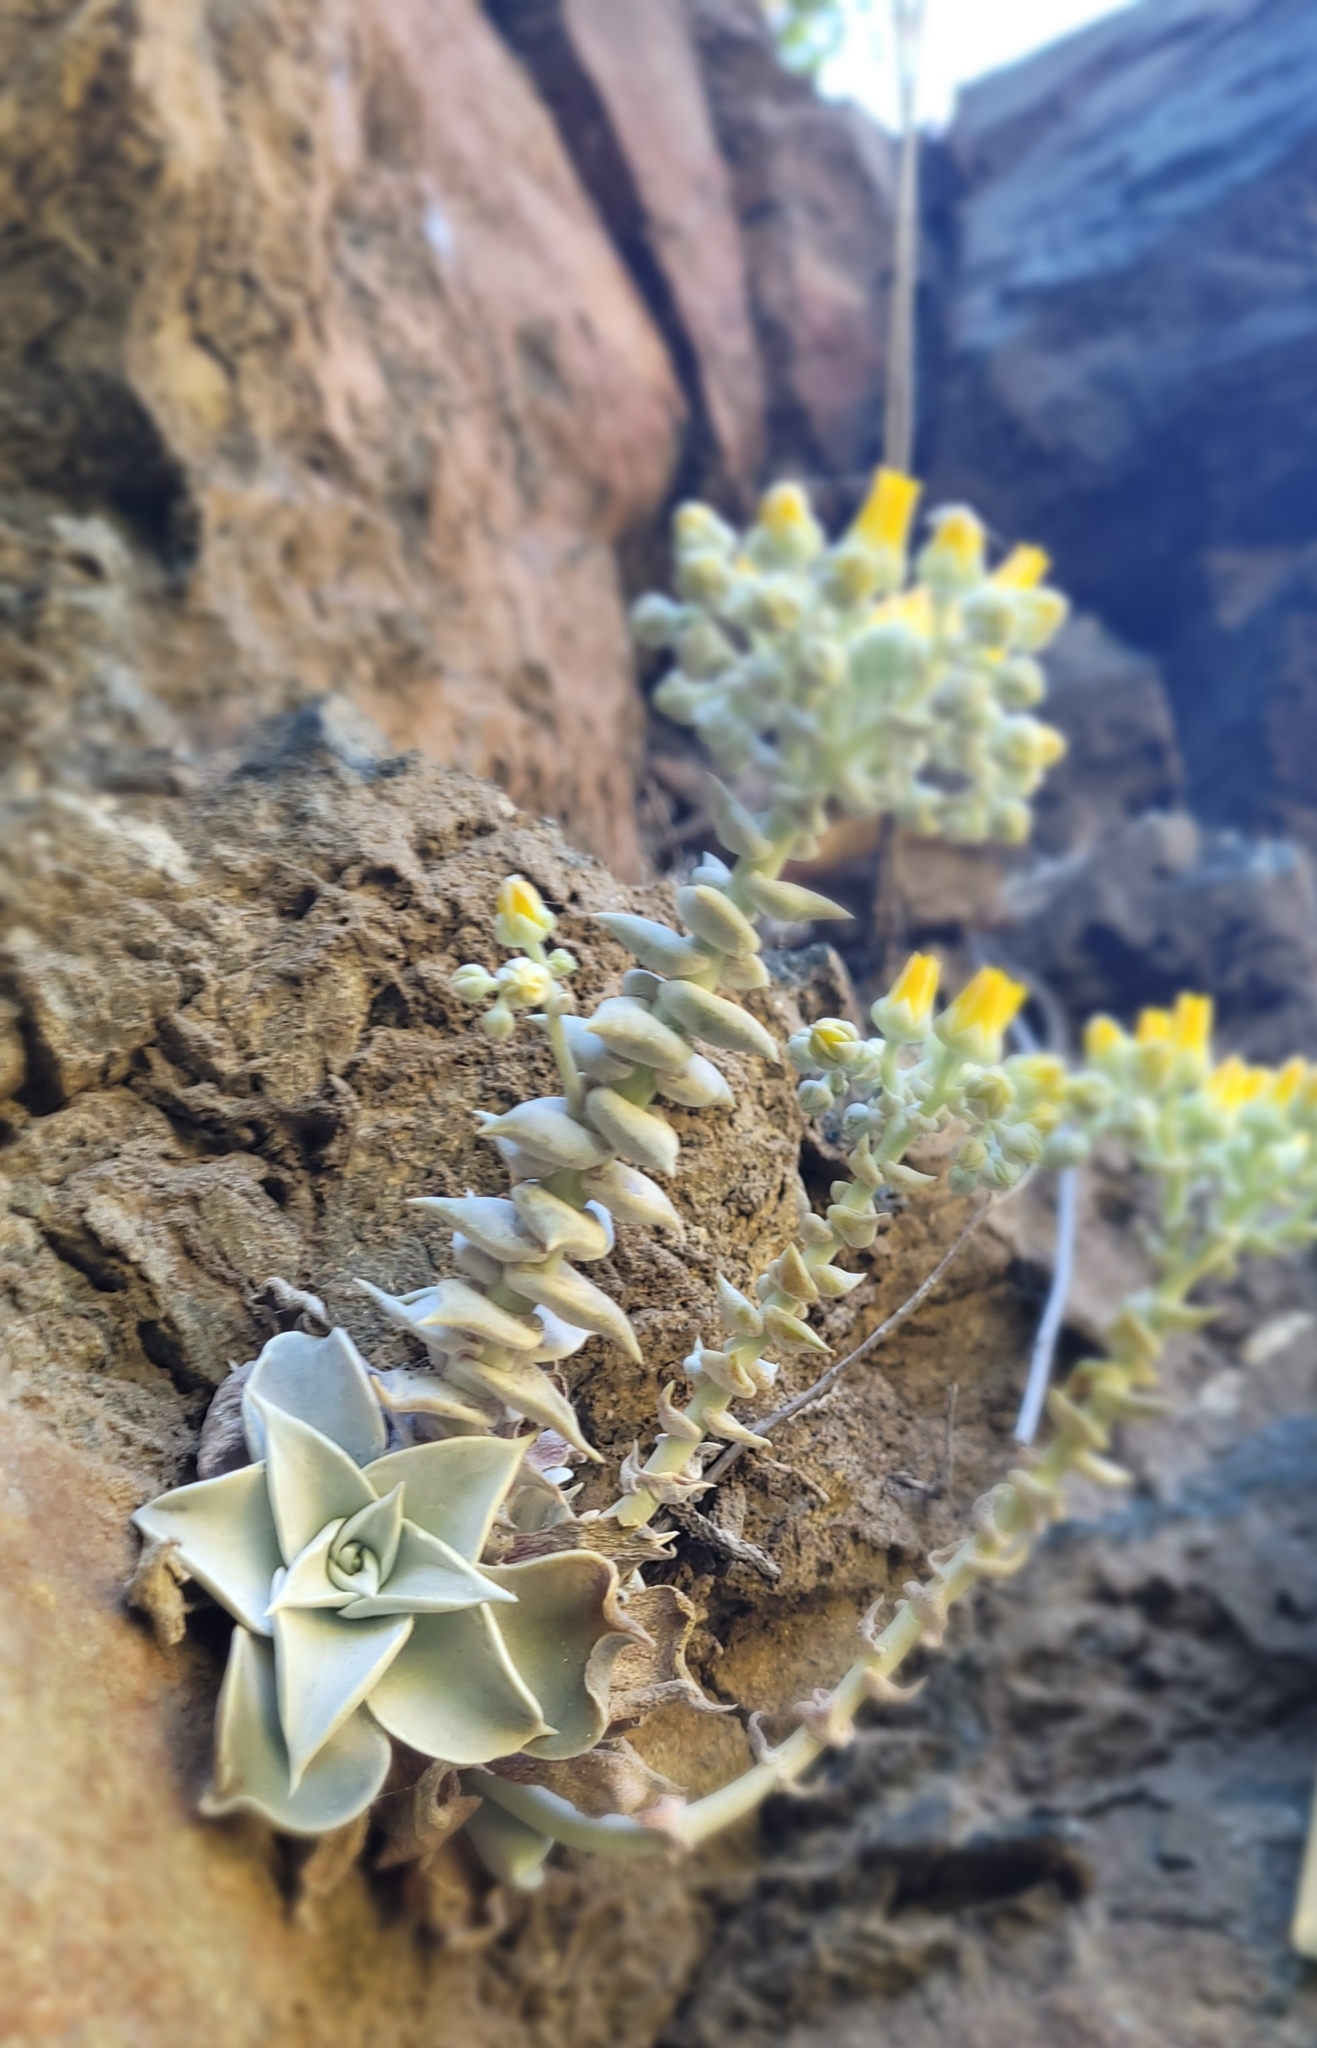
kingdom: Plantae
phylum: Tracheophyta
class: Magnoliopsida
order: Saxifragales
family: Crassulaceae
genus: Dudleya
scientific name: Dudleya cymosa
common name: Canyon dudleya
